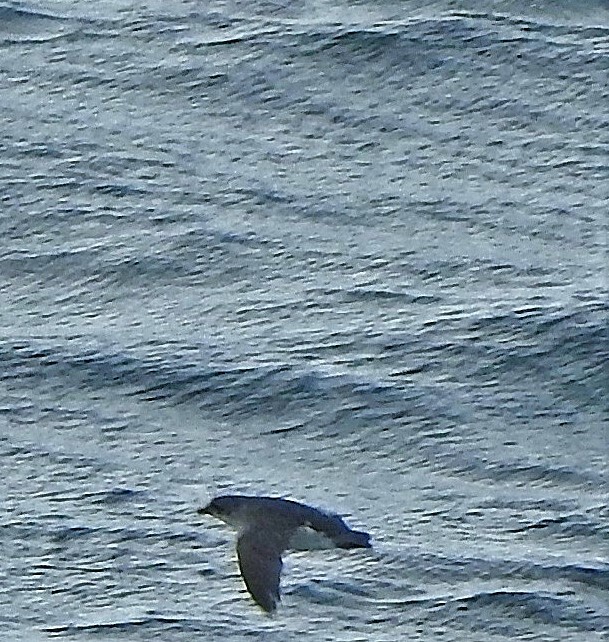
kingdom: Animalia
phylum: Chordata
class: Aves
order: Procellariiformes
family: Pelecanoididae
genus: Pelecanoides
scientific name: Pelecanoides georgicus
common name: South georgia diving-petrel
